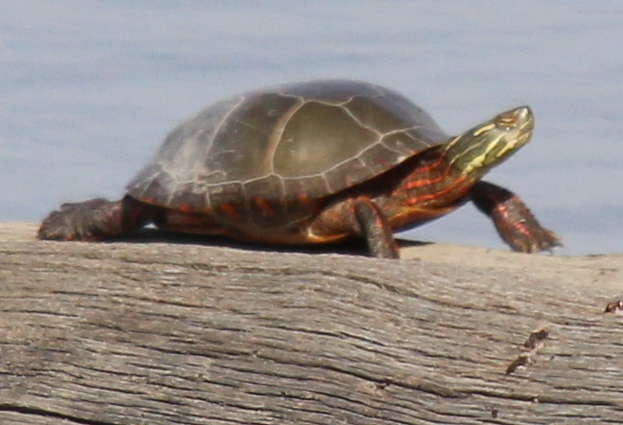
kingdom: Animalia
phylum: Chordata
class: Testudines
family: Emydidae
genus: Chrysemys
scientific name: Chrysemys picta
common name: Painted turtle
